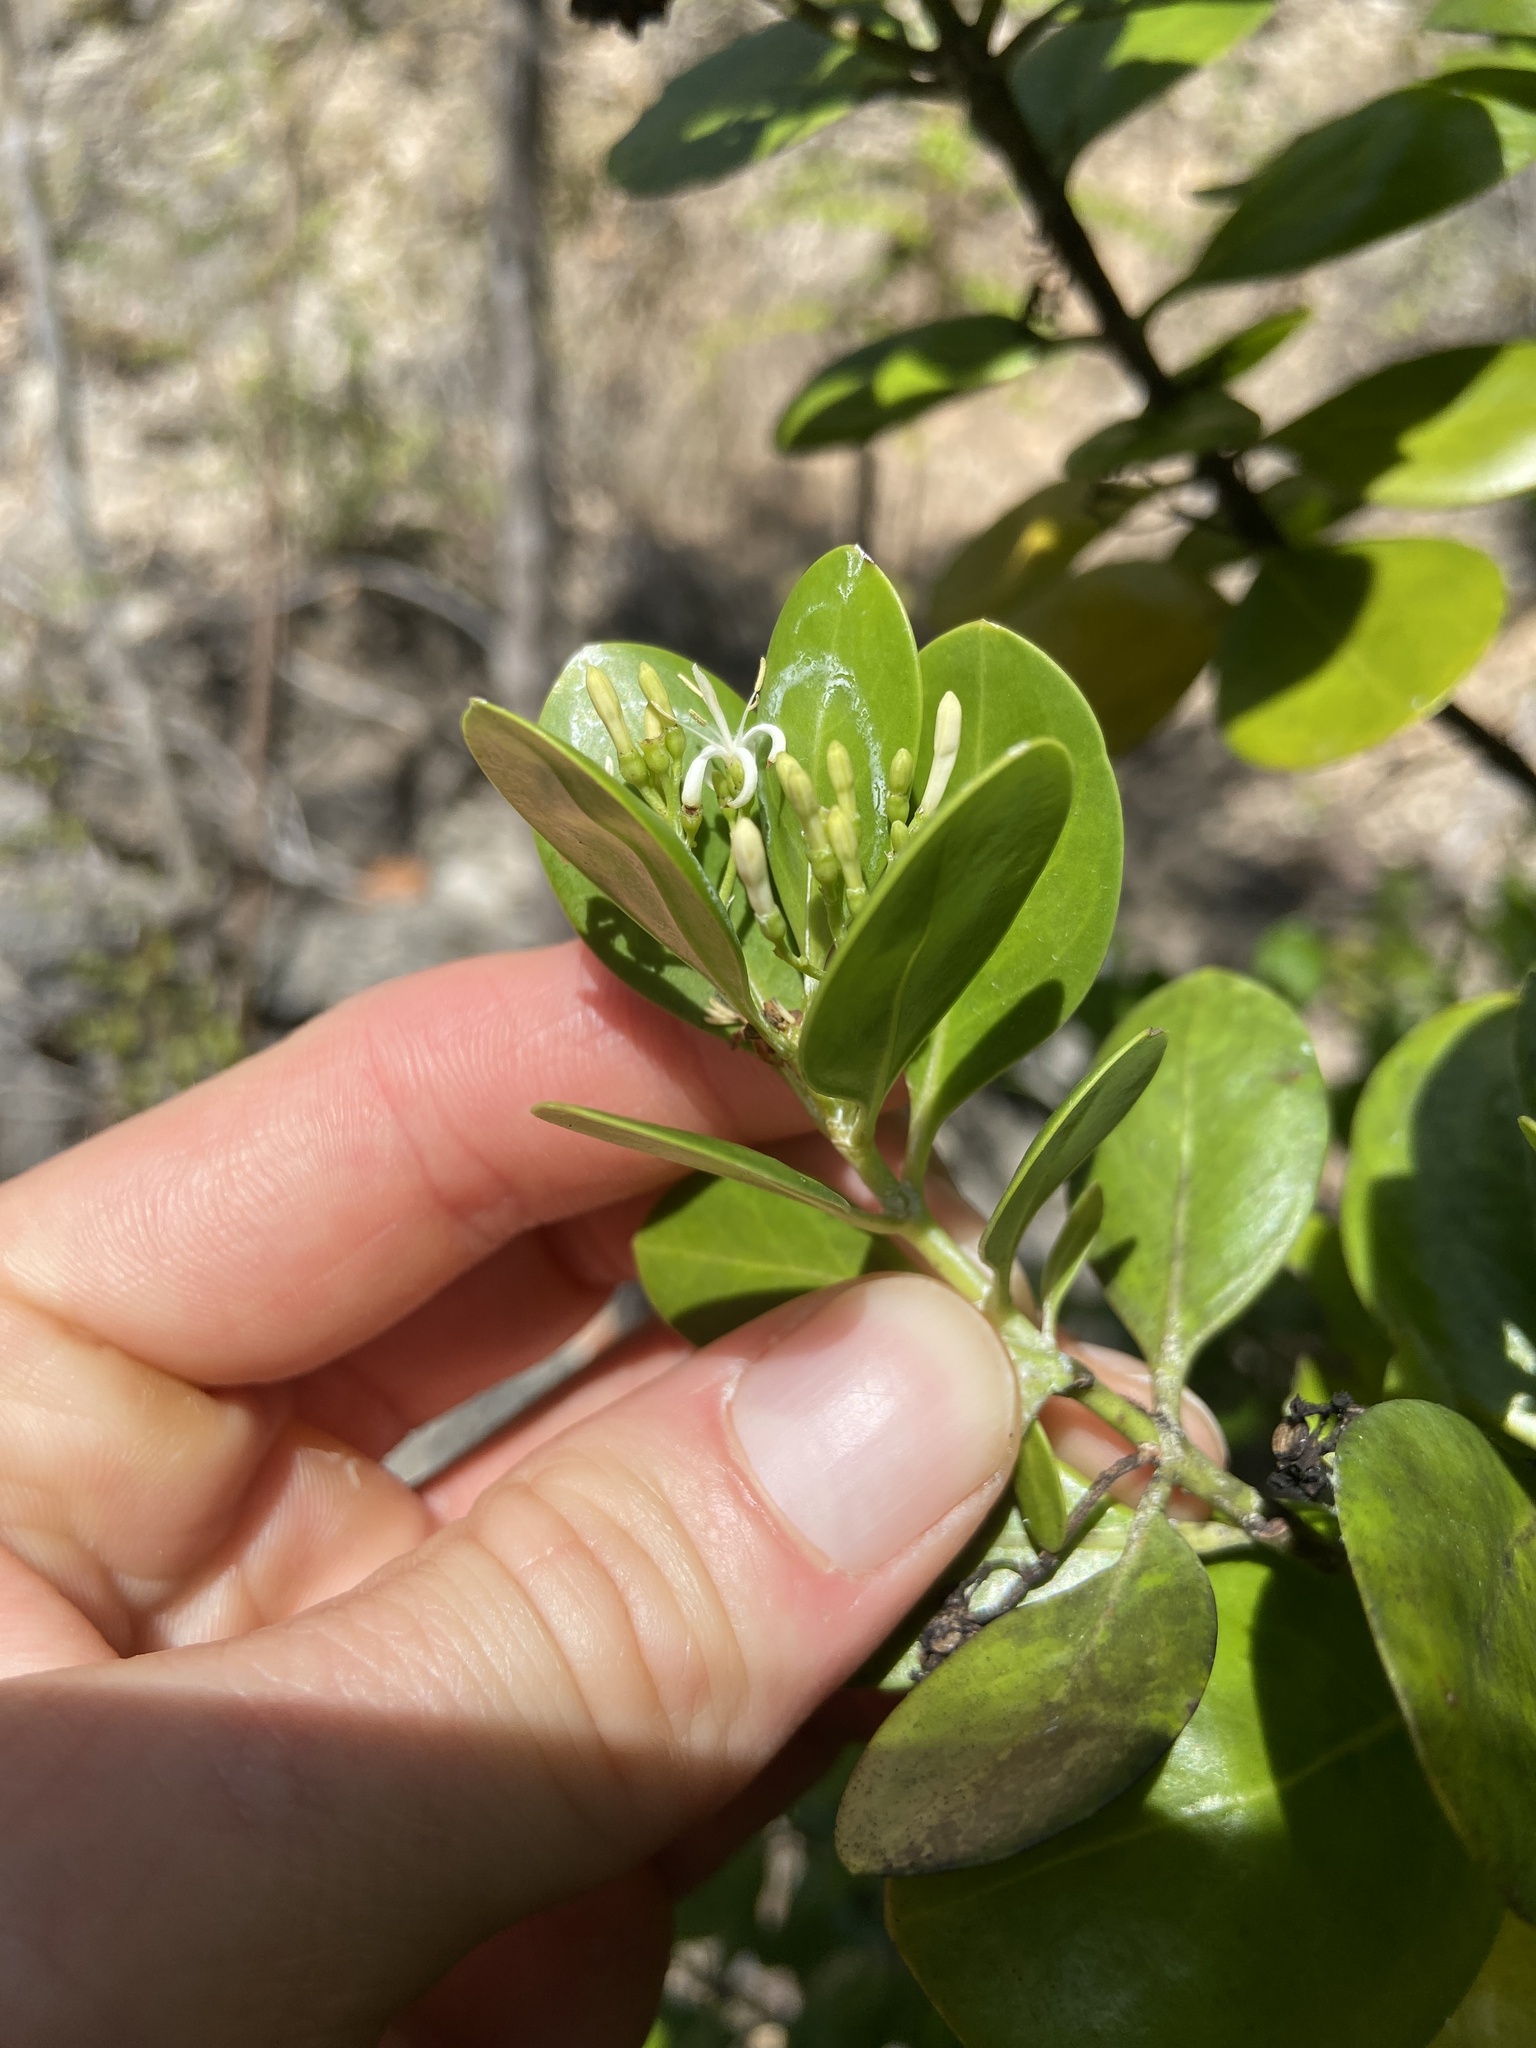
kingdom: Plantae
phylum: Tracheophyta
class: Magnoliopsida
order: Gentianales
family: Rubiaceae
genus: Erithalis
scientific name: Erithalis fruticosa
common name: Candlewood
